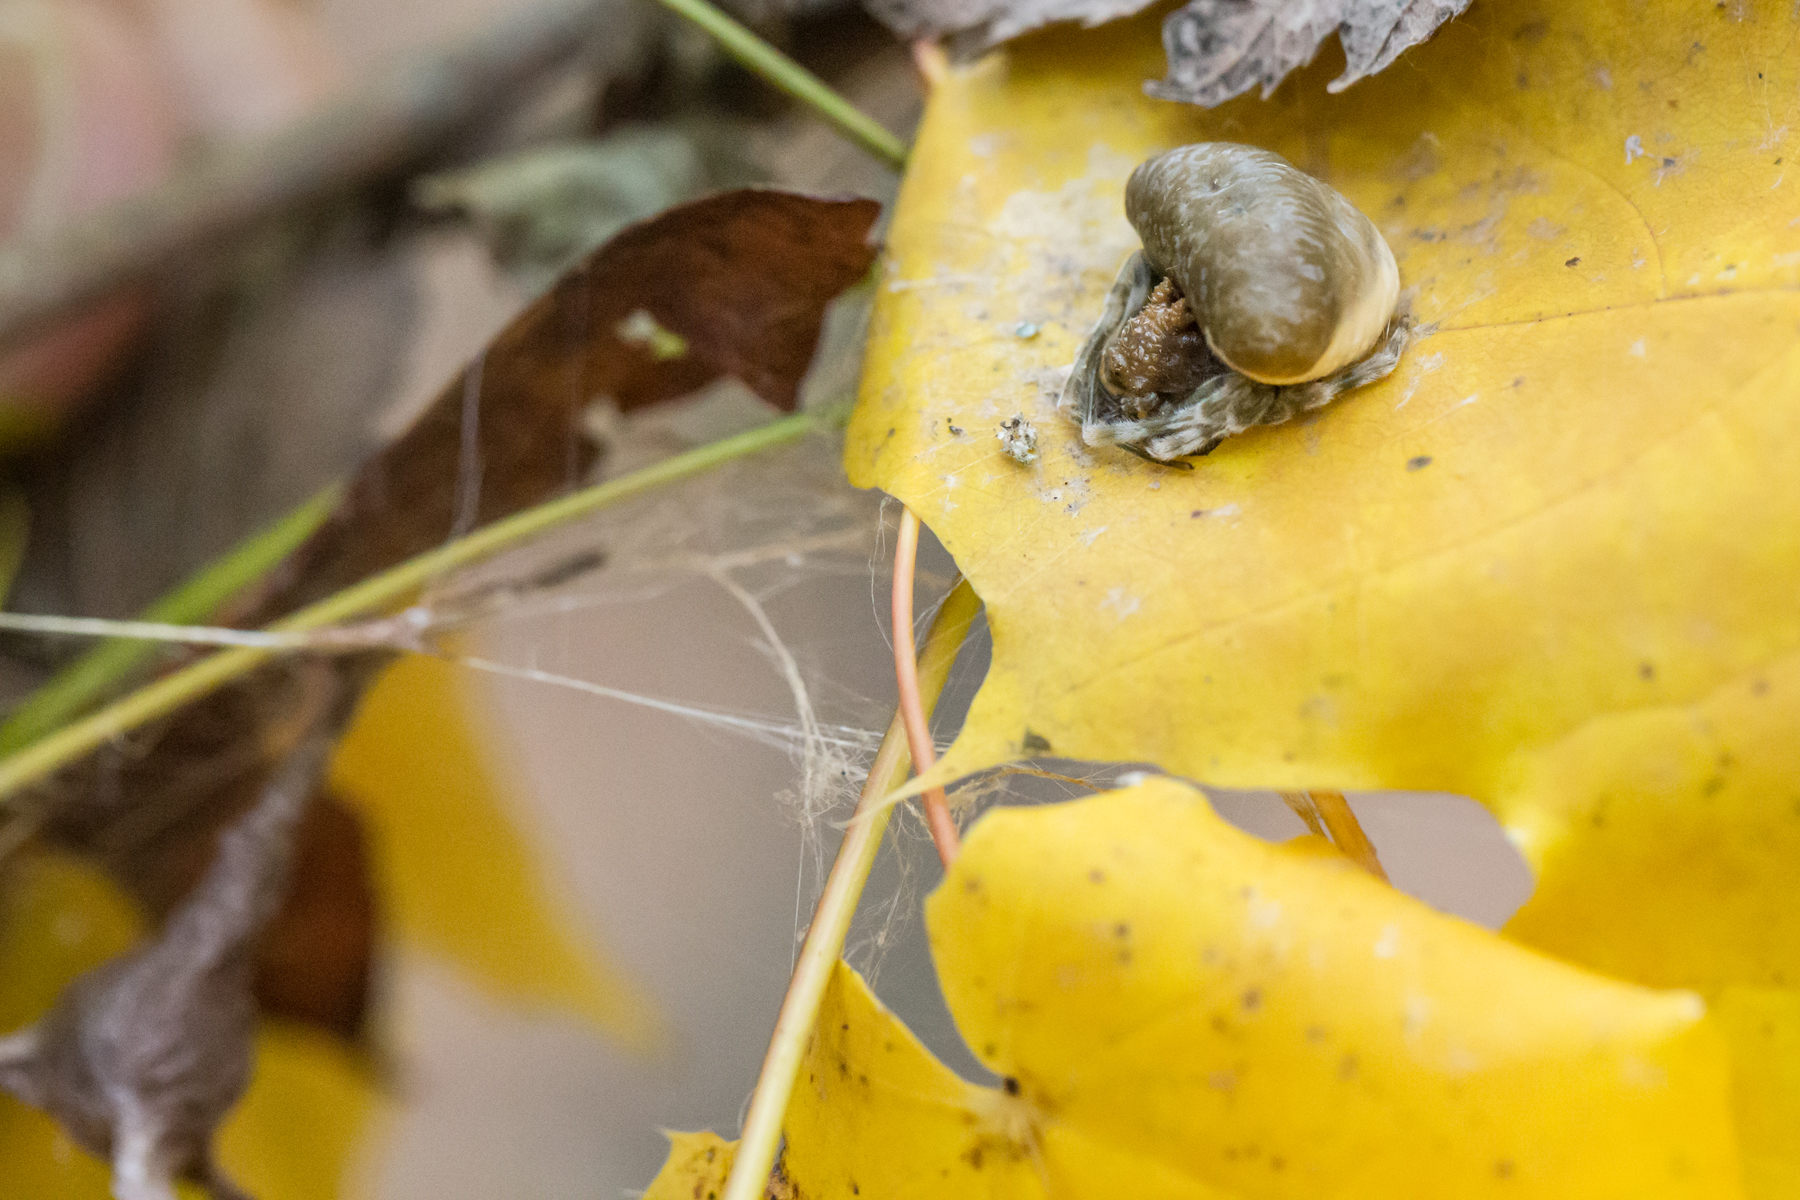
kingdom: Animalia
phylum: Arthropoda
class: Arachnida
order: Araneae
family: Araneidae
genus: Mastophora
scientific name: Mastophora phrynosoma
